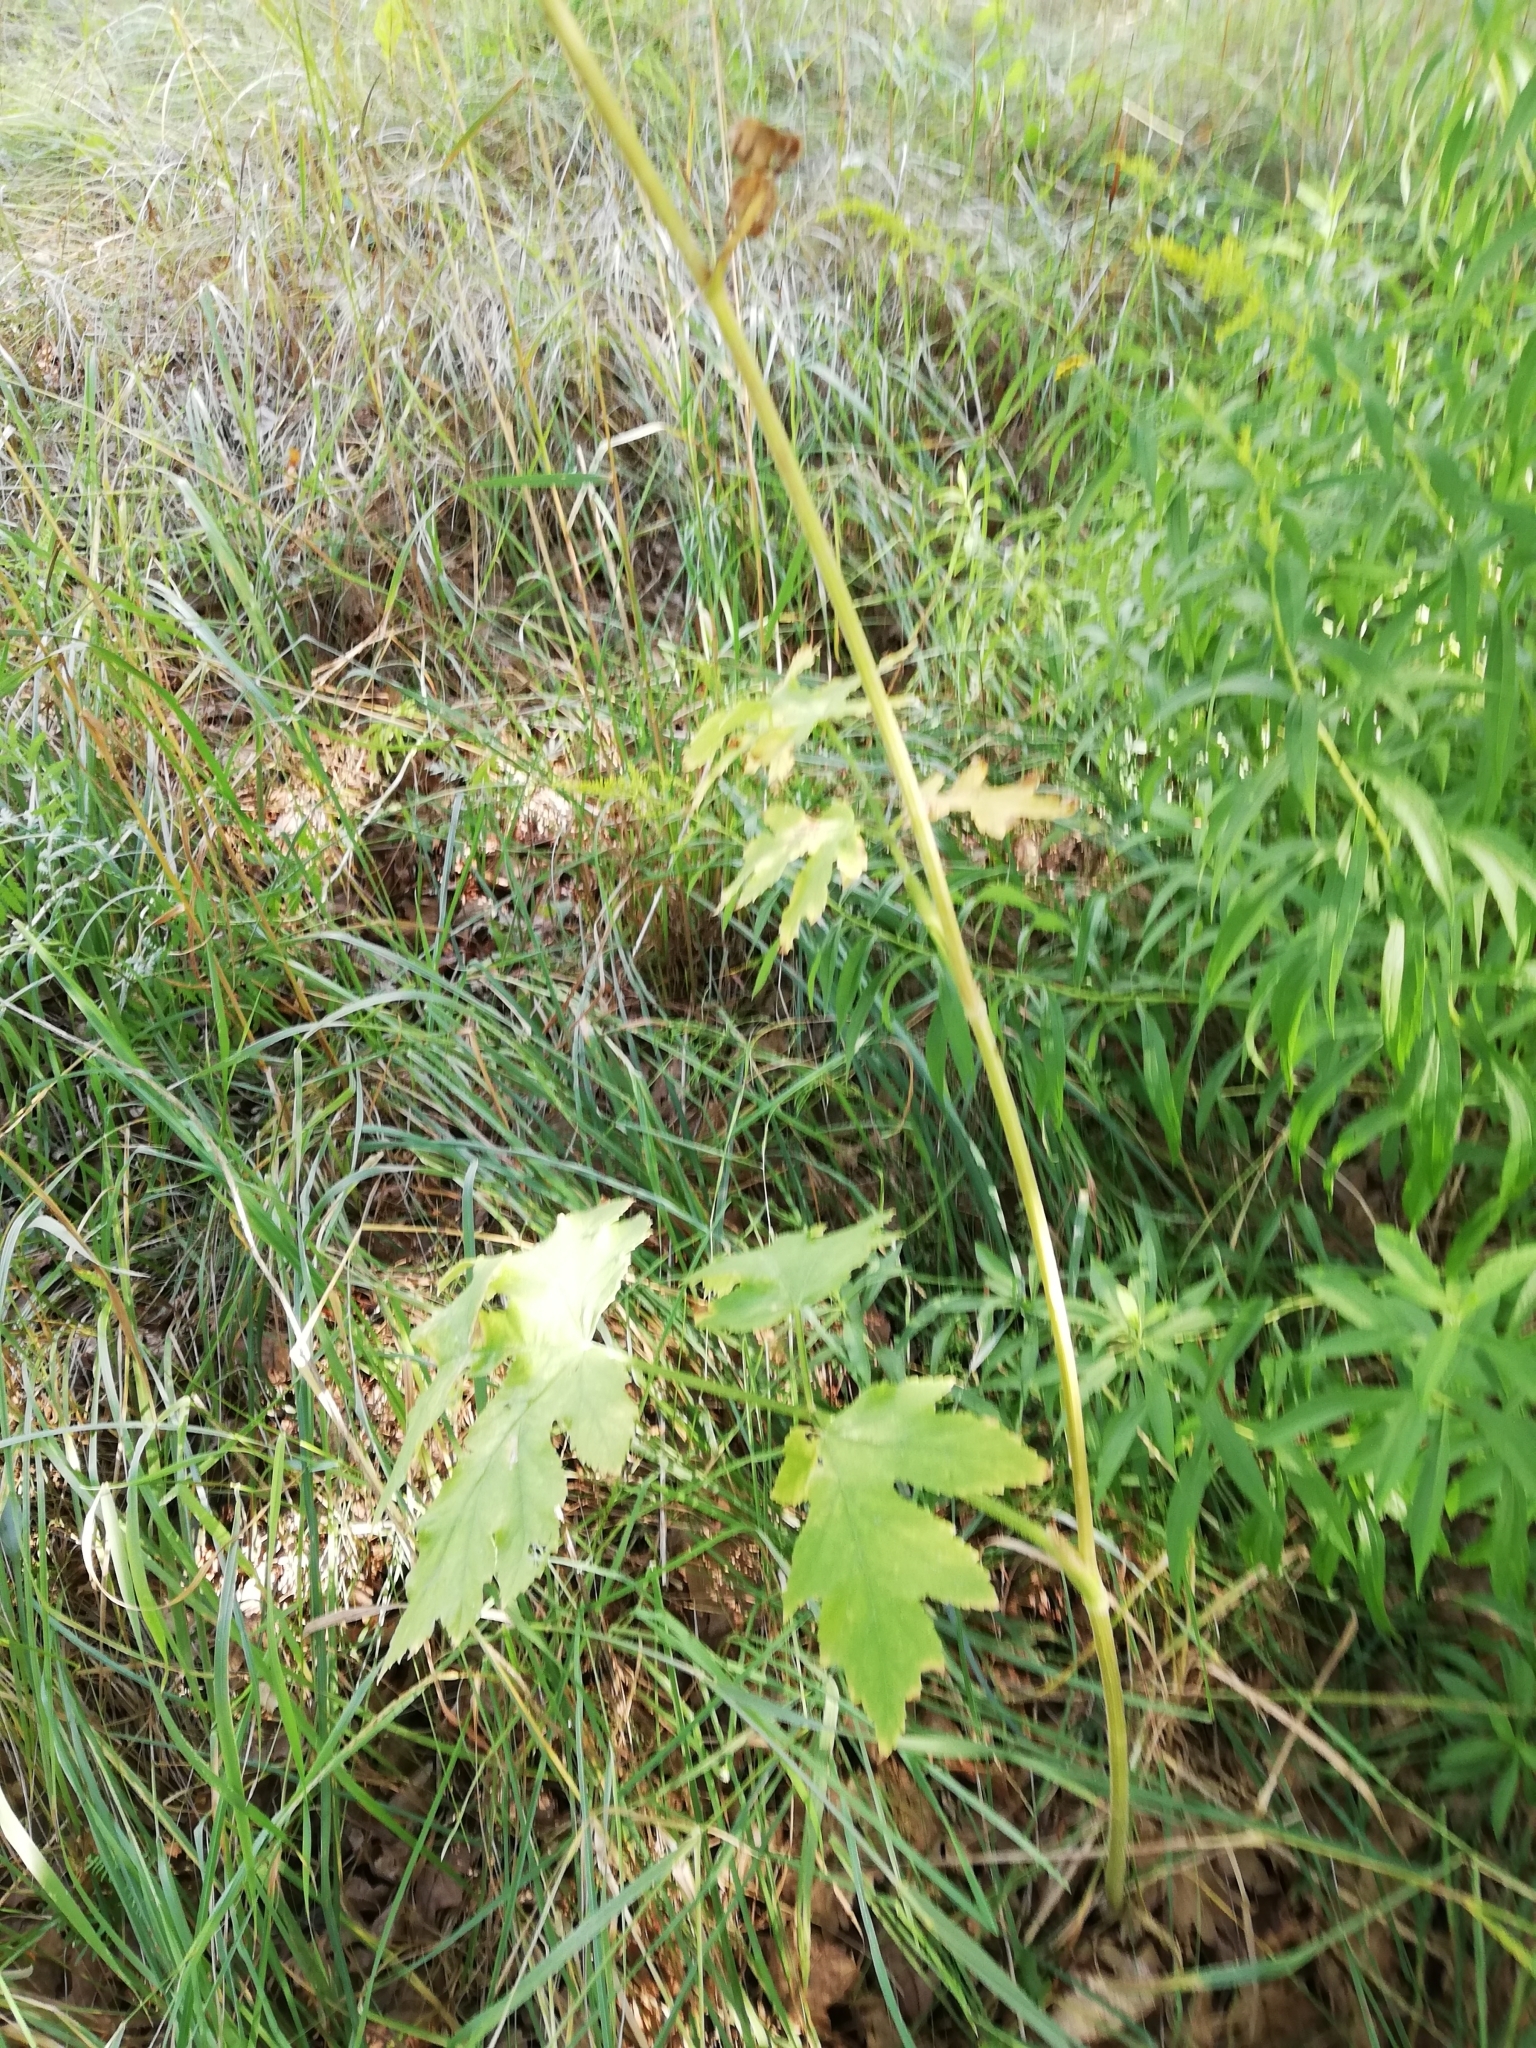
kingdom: Plantae
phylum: Tracheophyta
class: Magnoliopsida
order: Apiales
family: Apiaceae
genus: Heracleum
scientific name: Heracleum sphondylium
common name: Hogweed
